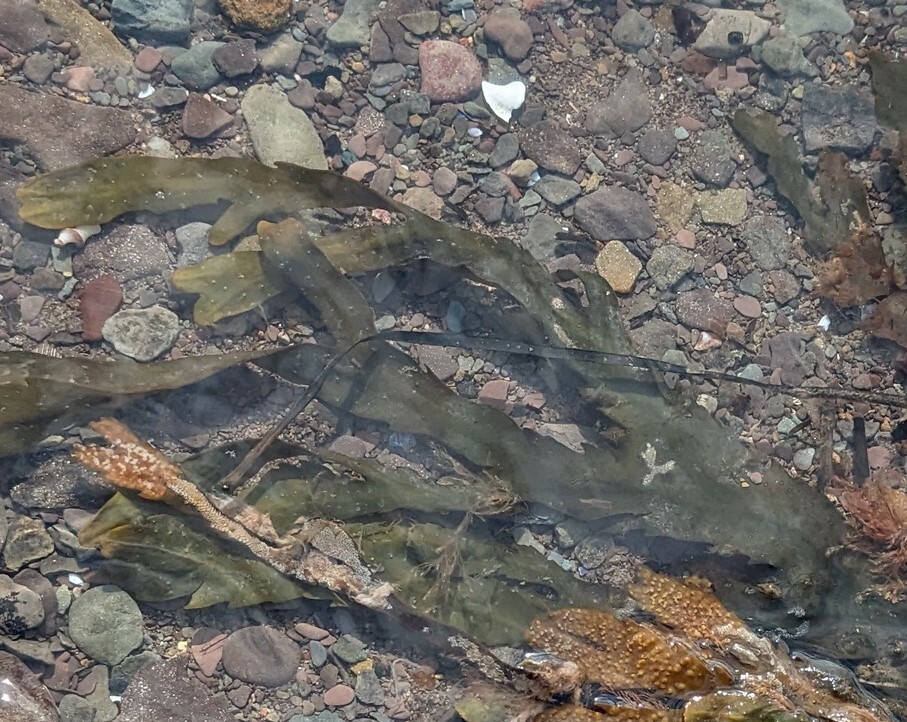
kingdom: Chromista
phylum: Ochrophyta
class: Phaeophyceae
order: Fucales
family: Fucaceae
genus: Fucus
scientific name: Fucus serratus
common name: Toothed wrack
